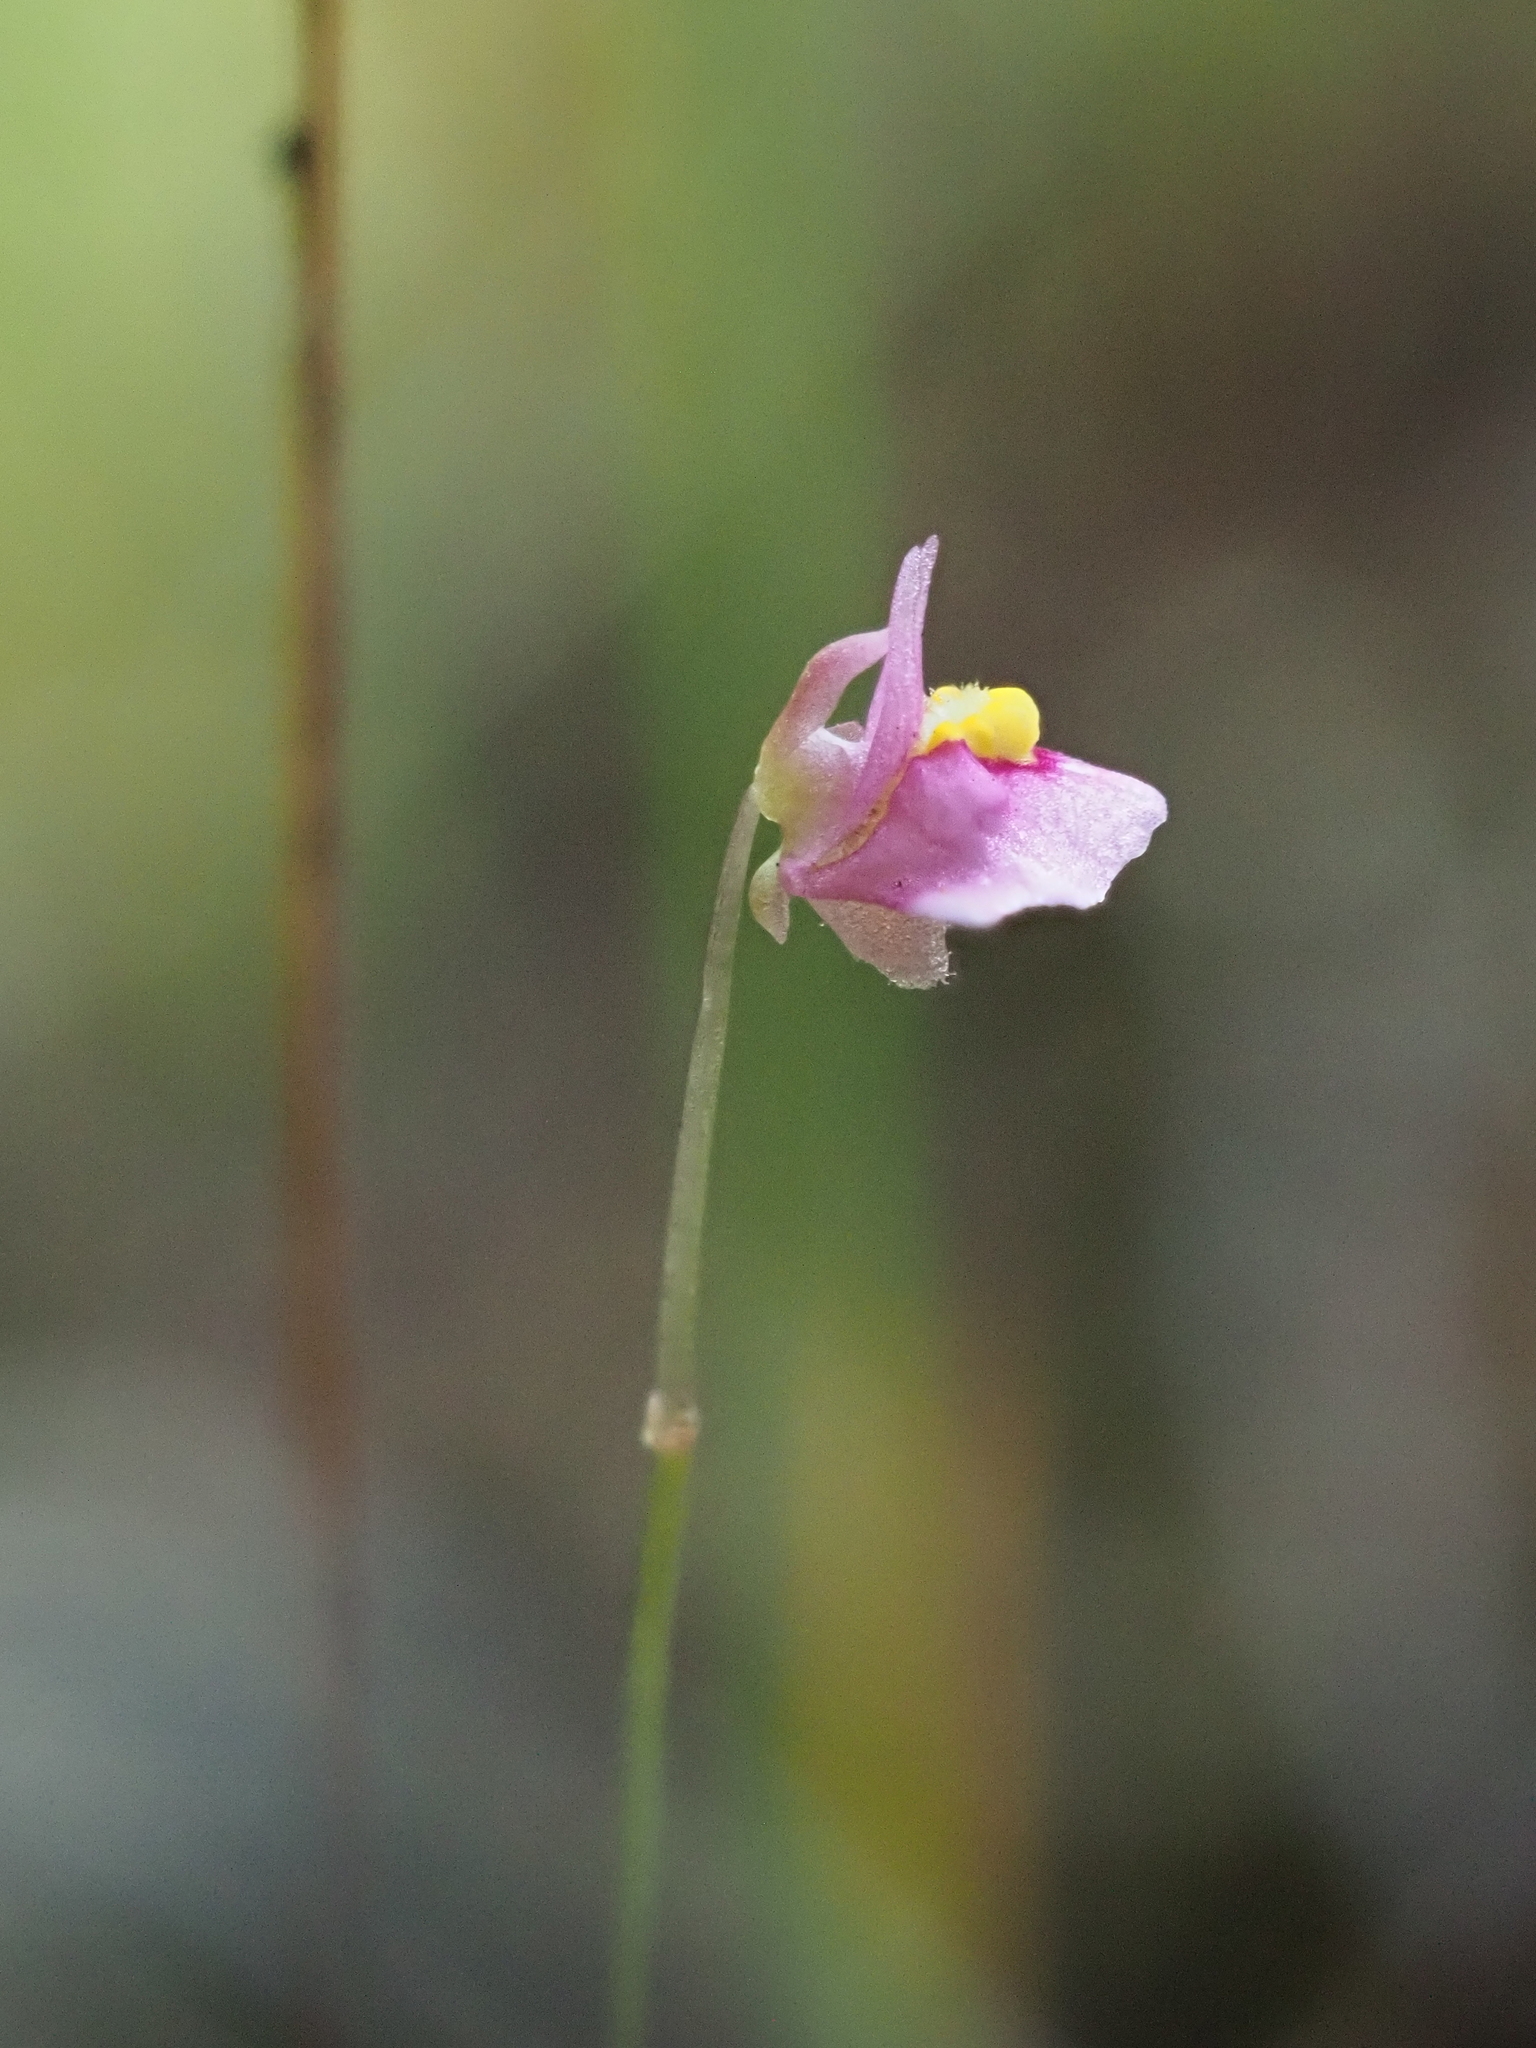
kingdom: Plantae
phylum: Tracheophyta
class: Magnoliopsida
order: Lamiales
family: Lentibulariaceae
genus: Utricularia
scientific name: Utricularia multifida
